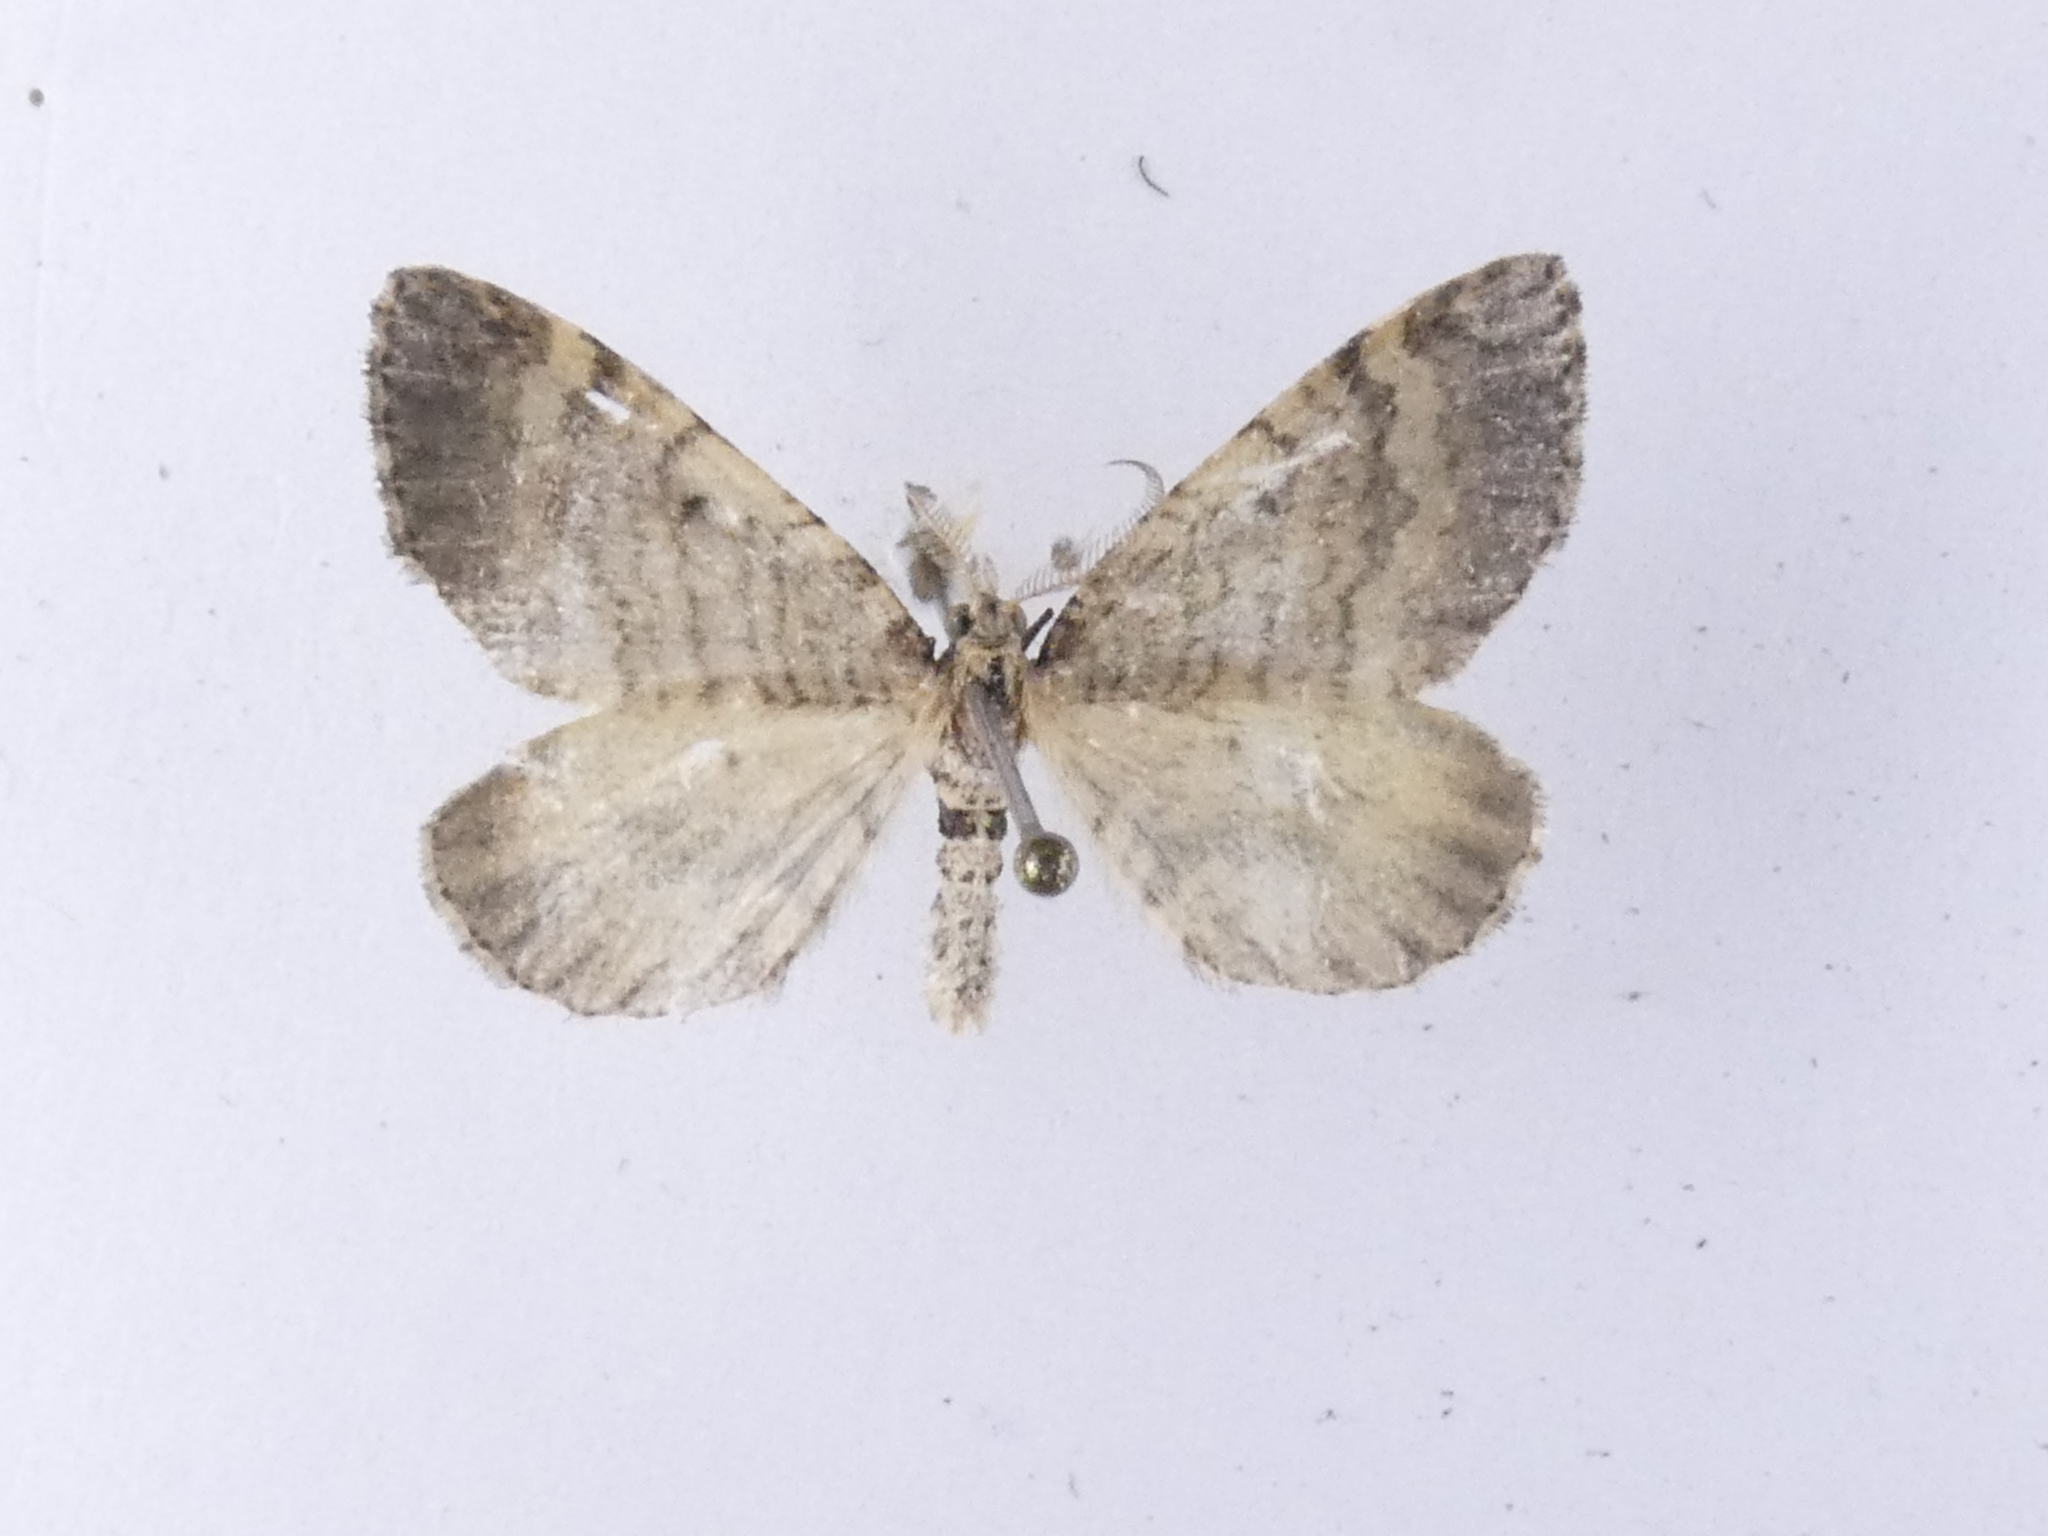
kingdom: Animalia
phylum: Arthropoda
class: Insecta
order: Lepidoptera
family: Geometridae
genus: Asaphodes
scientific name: Asaphodes aegrota
